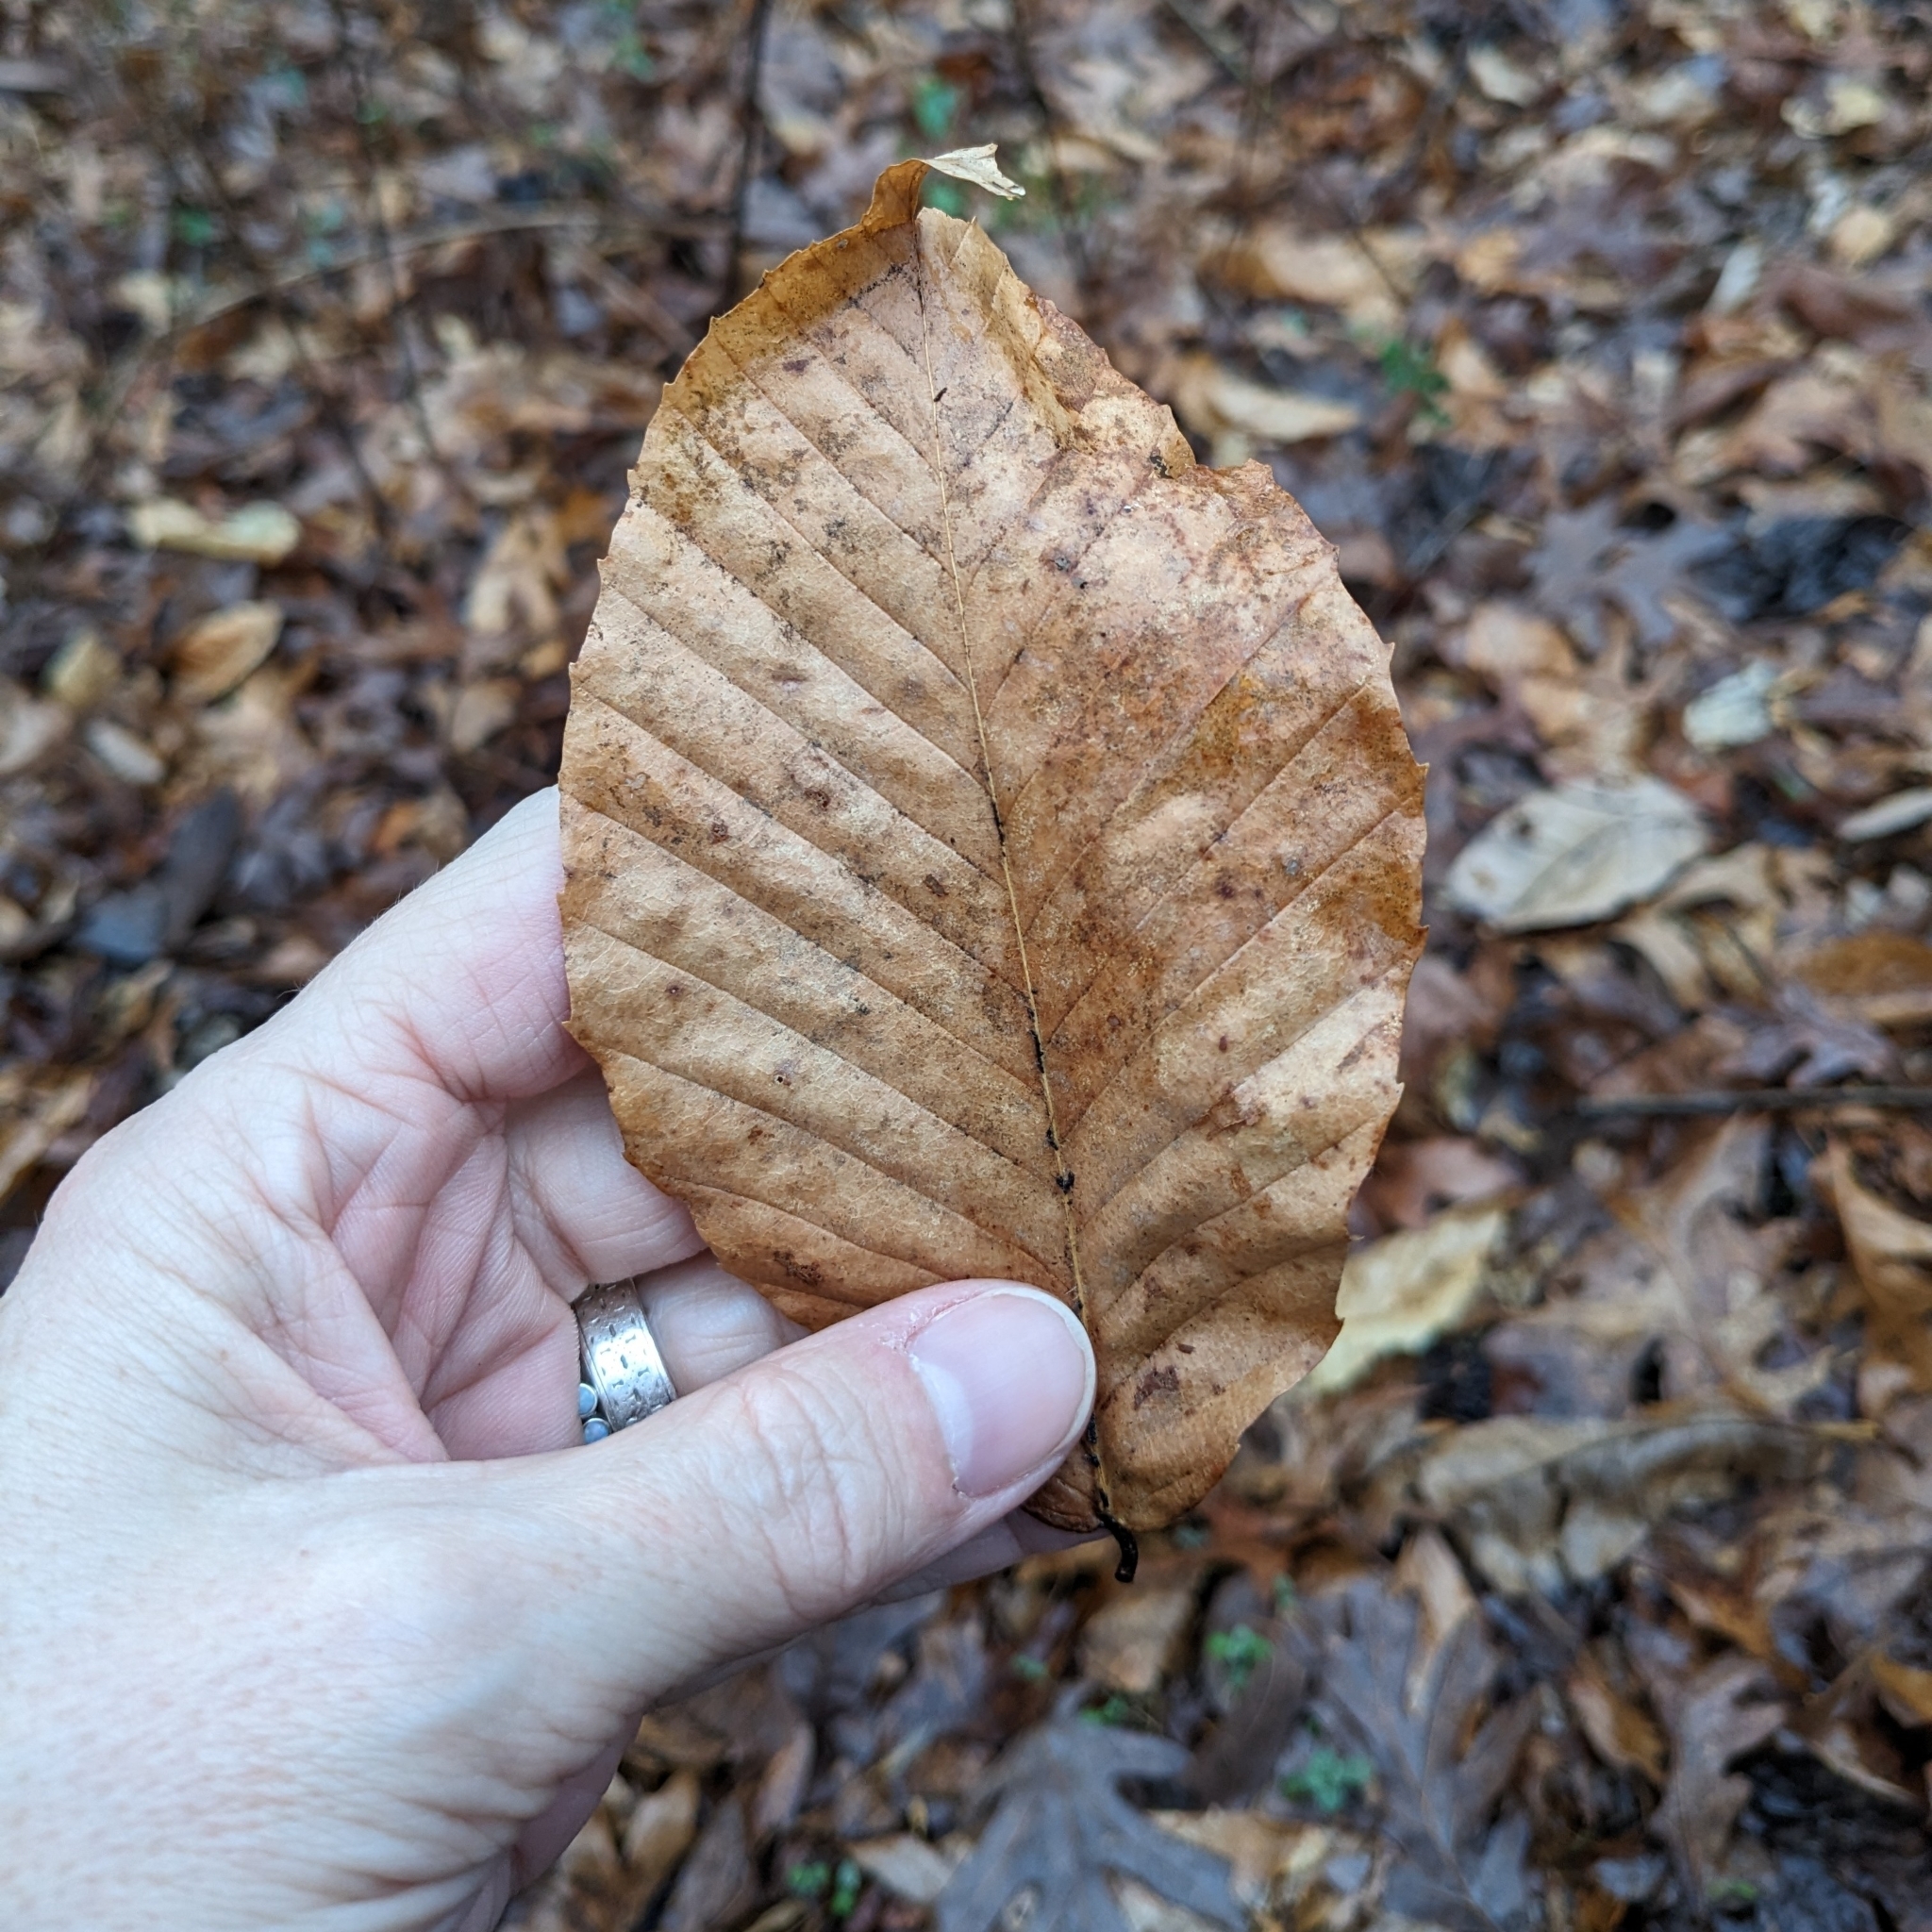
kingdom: Plantae
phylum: Tracheophyta
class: Magnoliopsida
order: Fagales
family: Fagaceae
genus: Fagus
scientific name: Fagus grandifolia
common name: American beech
